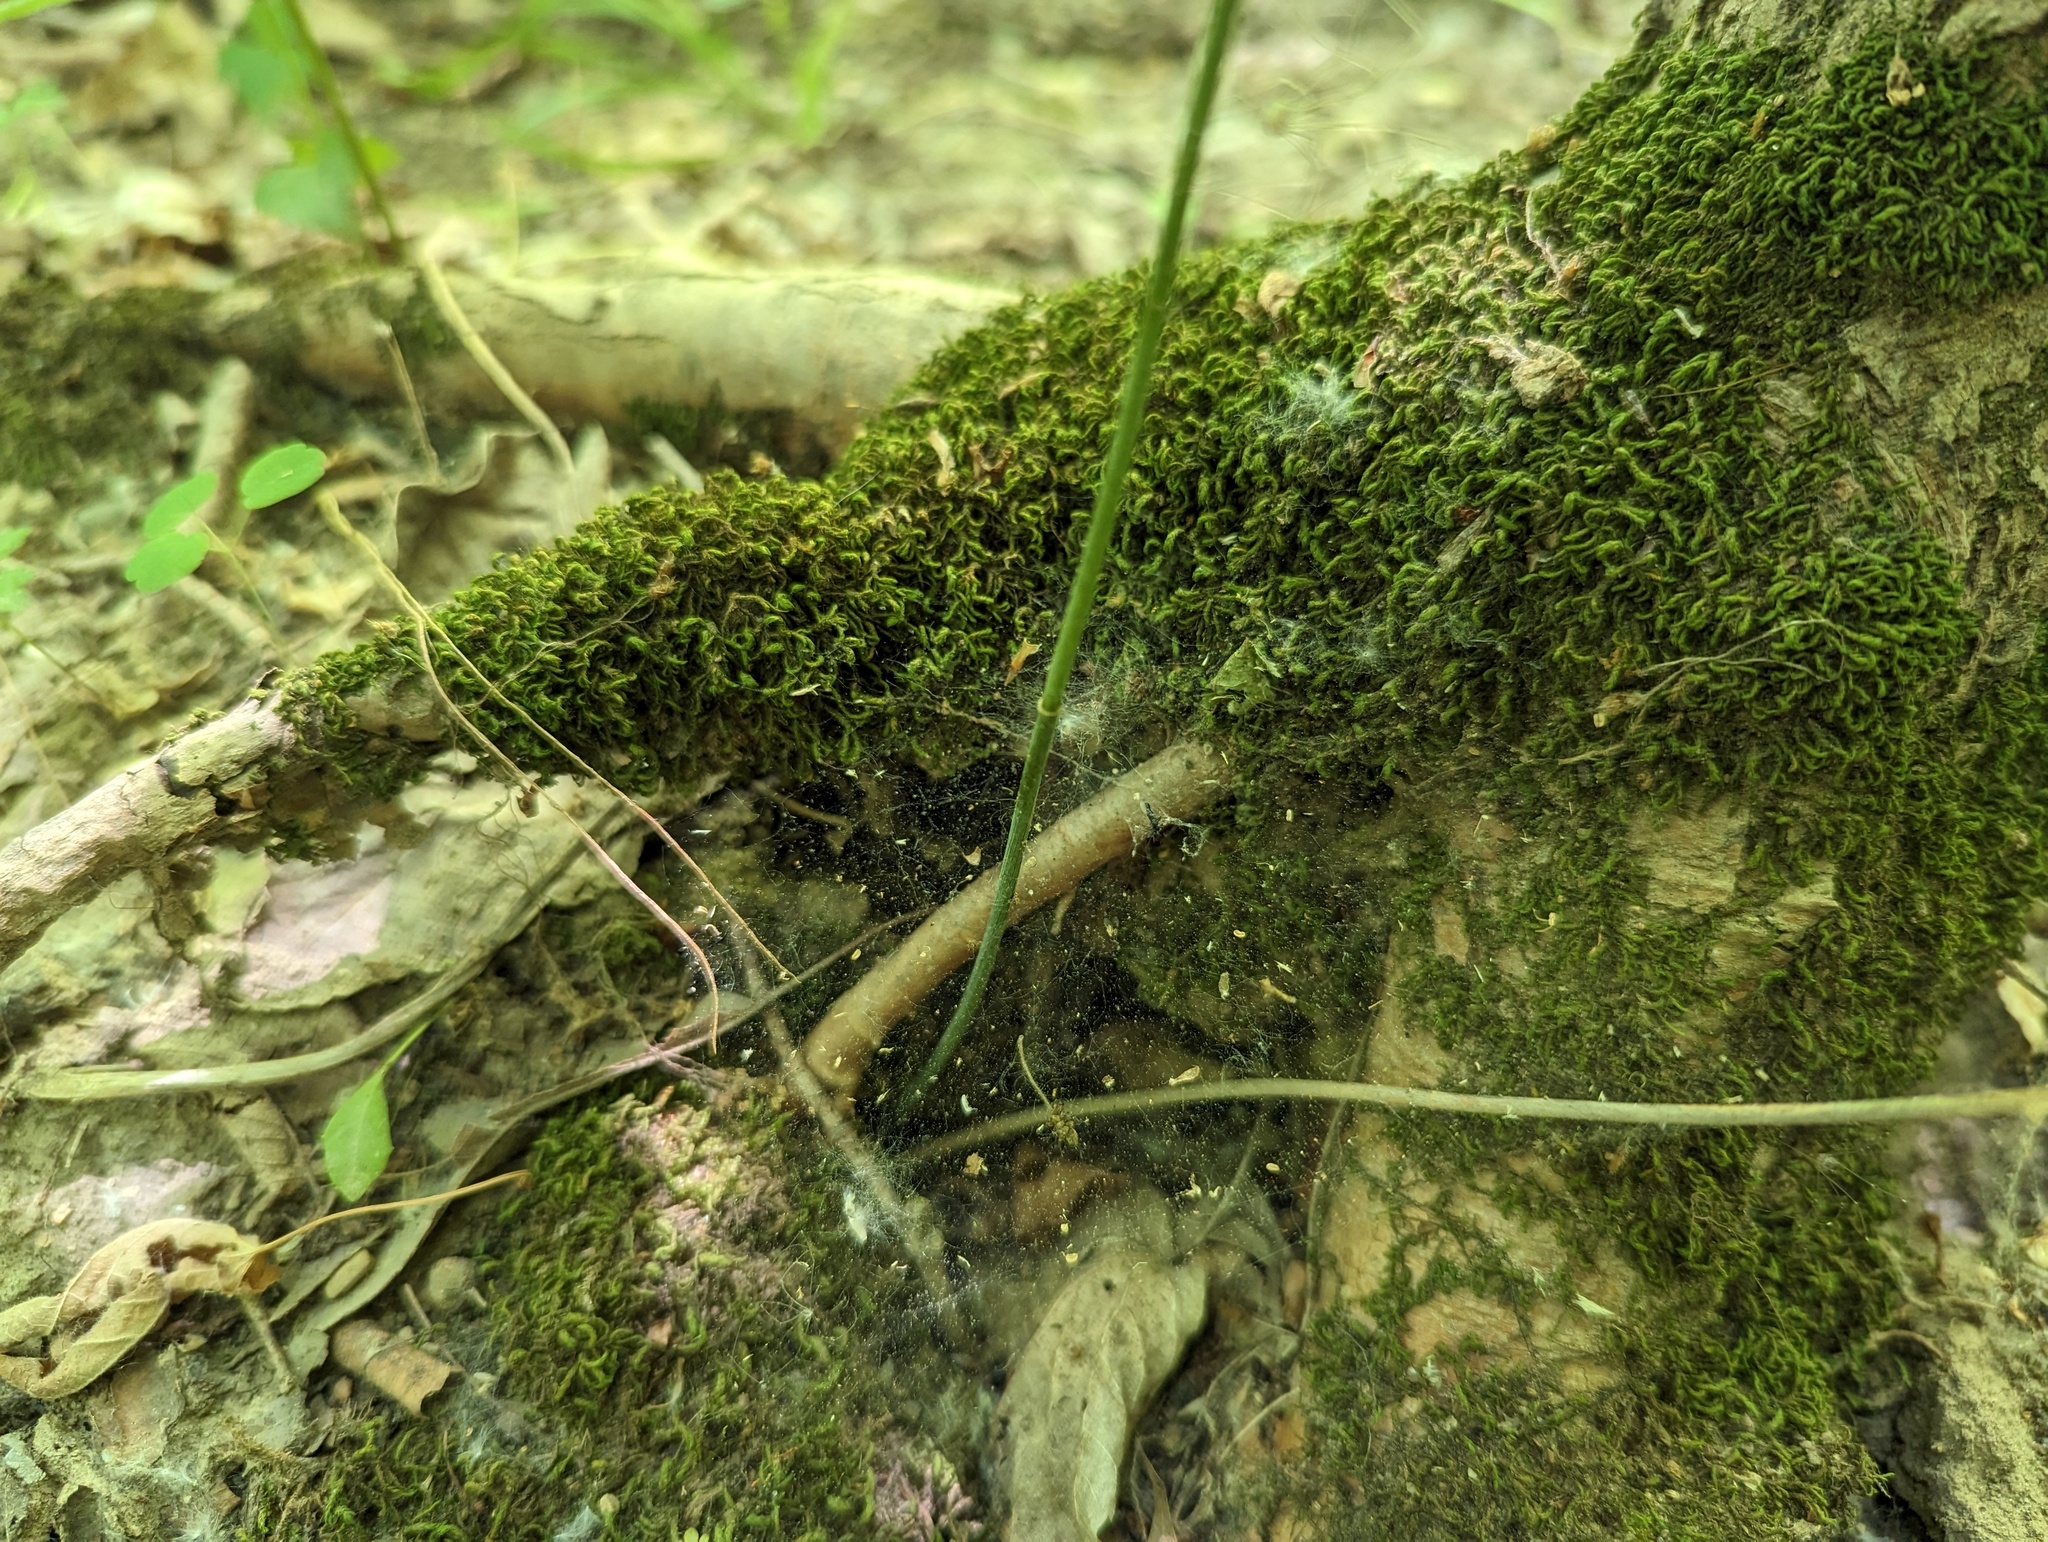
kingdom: Plantae
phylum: Tracheophyta
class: Liliopsida
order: Asparagales
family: Asparagaceae
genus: Polygonatum
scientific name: Polygonatum pubescens
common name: Downy solomon's seal
